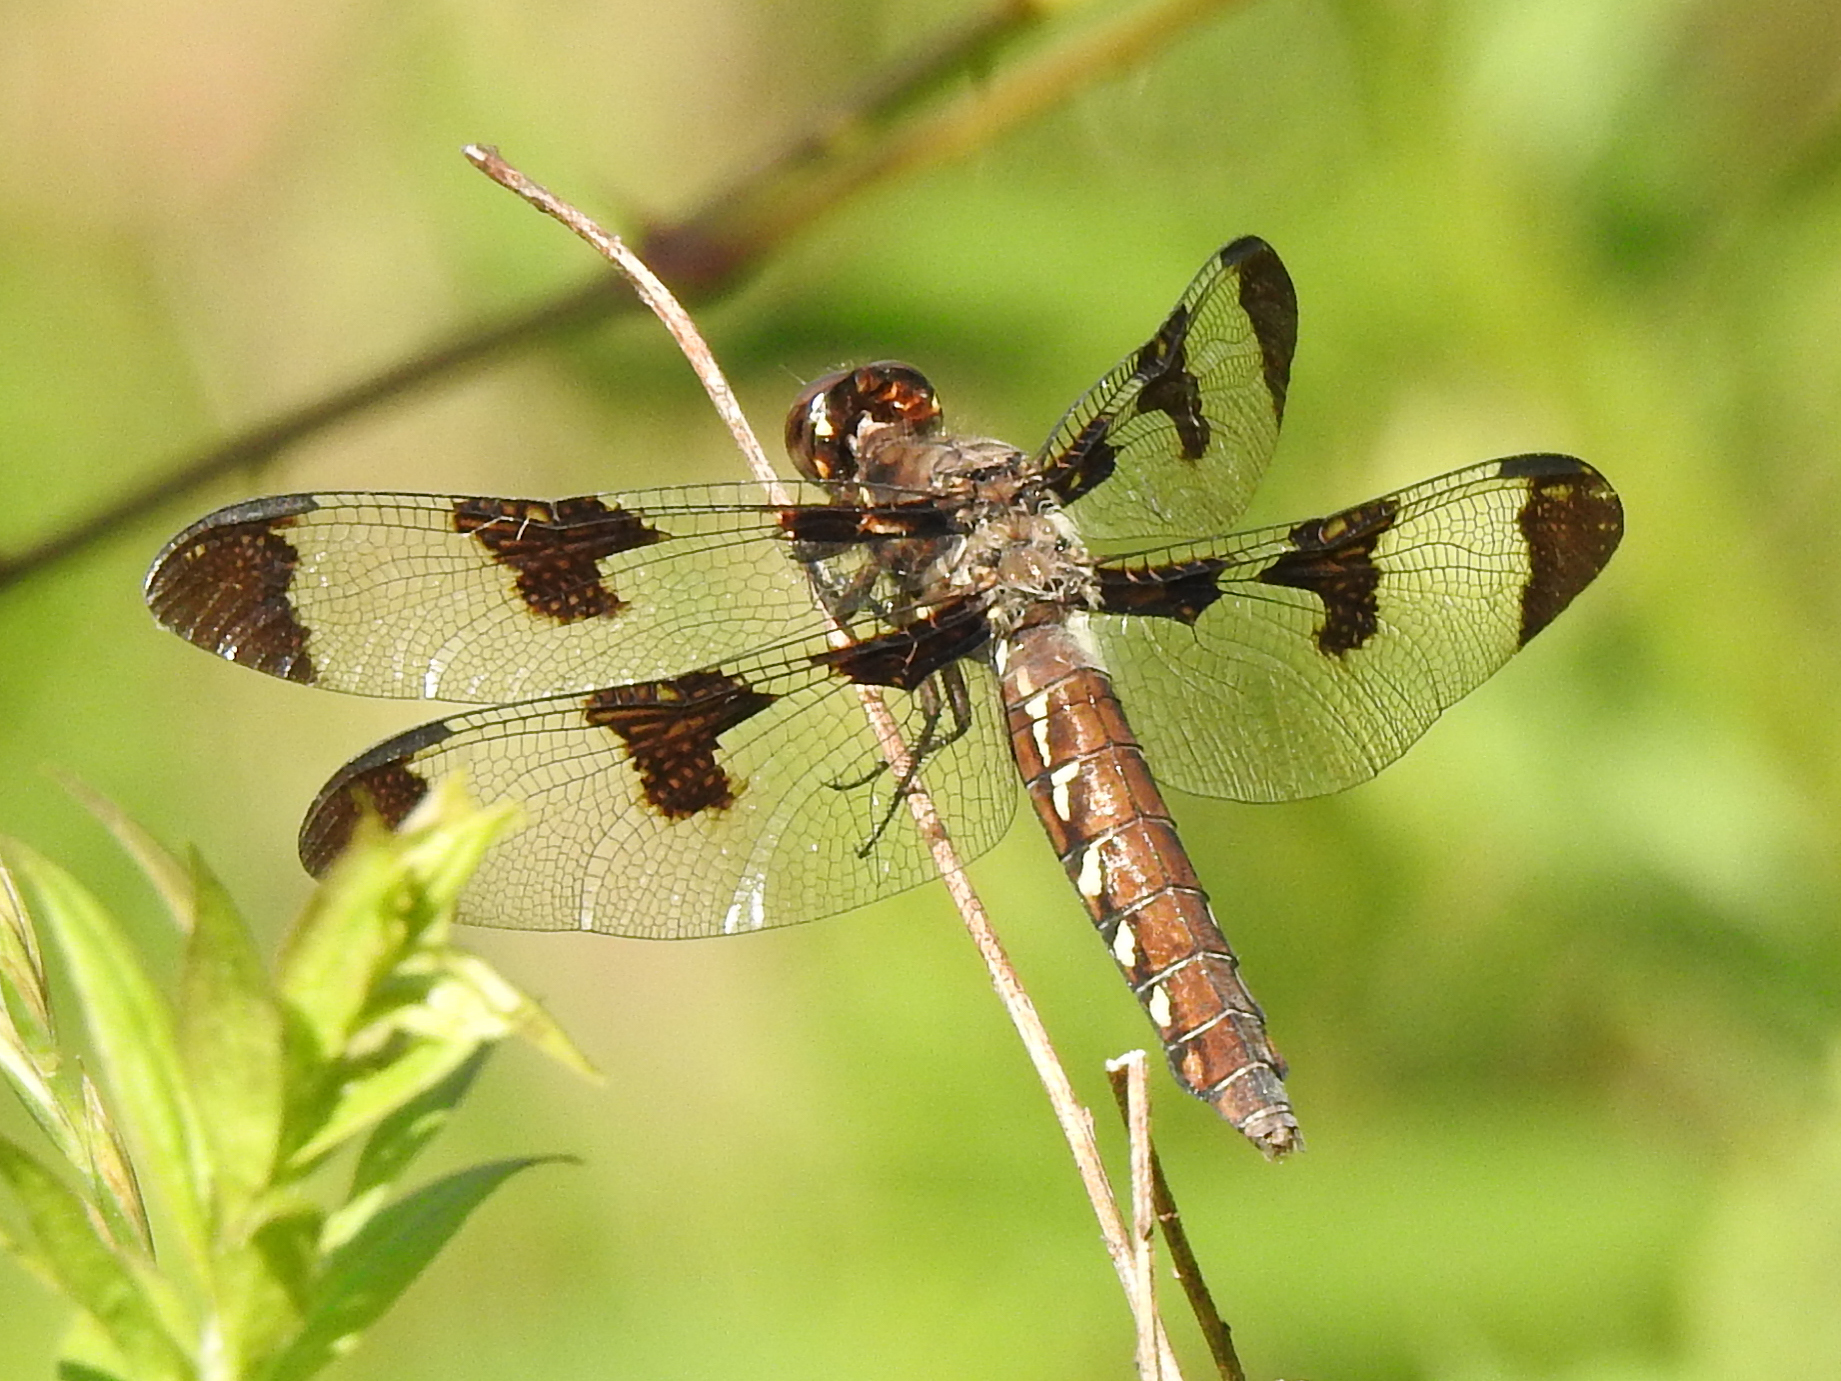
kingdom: Animalia
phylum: Arthropoda
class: Insecta
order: Odonata
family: Libellulidae
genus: Plathemis
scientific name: Plathemis lydia
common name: Common whitetail
